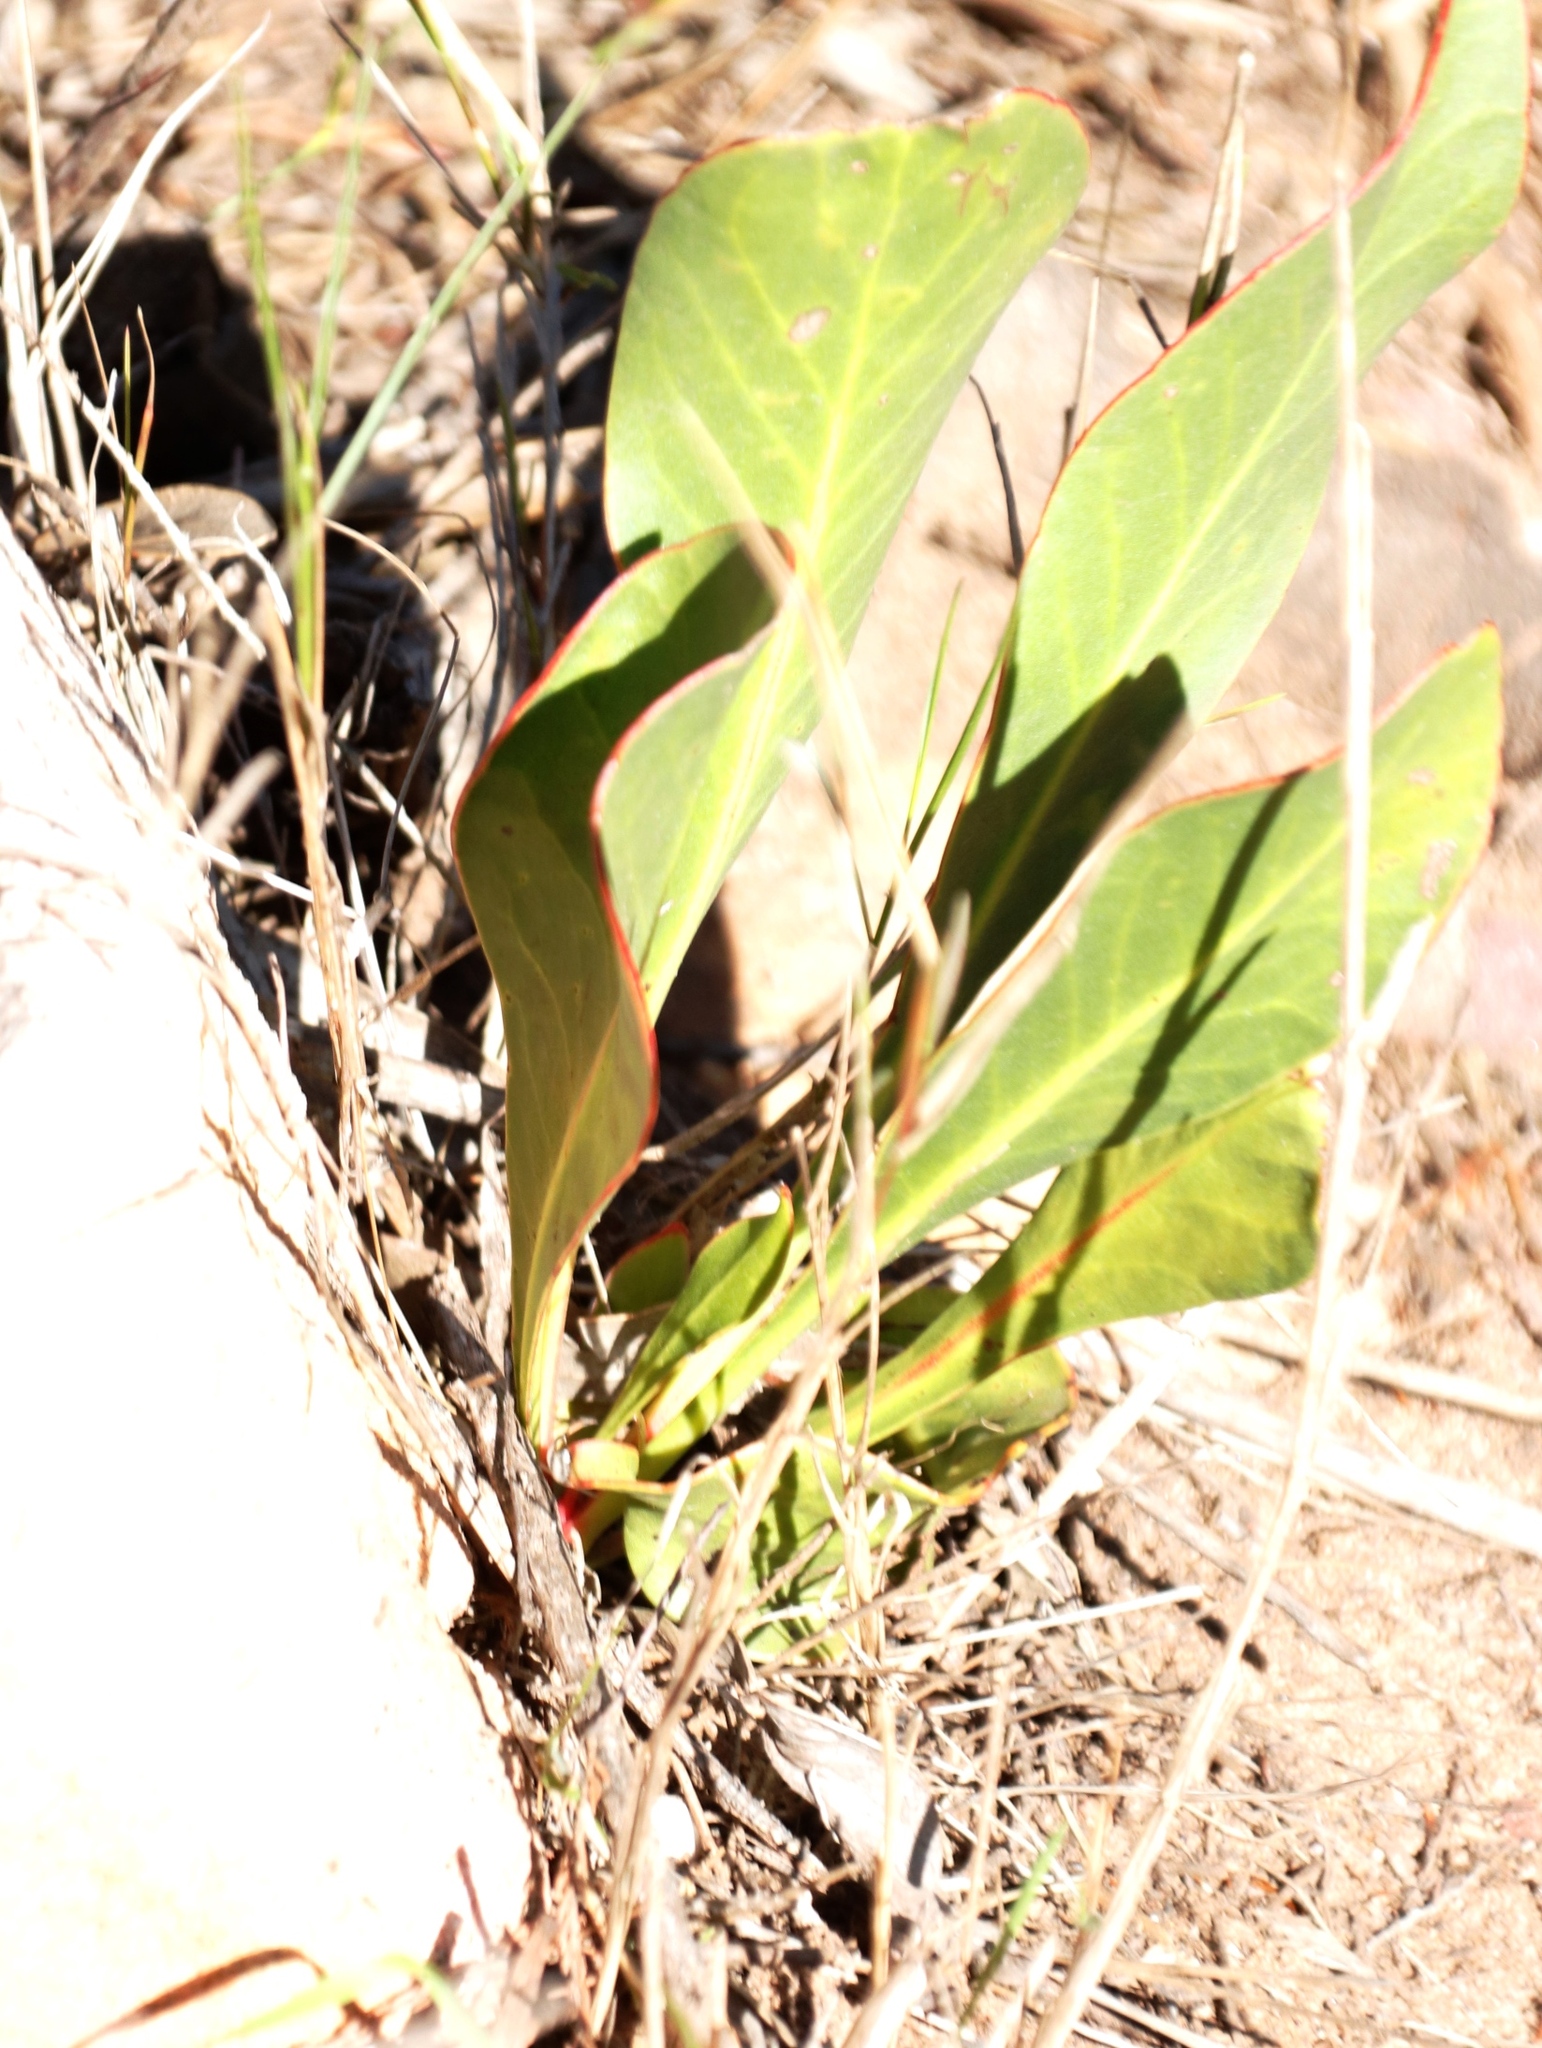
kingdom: Plantae
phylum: Tracheophyta
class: Magnoliopsida
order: Proteales
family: Proteaceae
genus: Protea
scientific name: Protea acaulos
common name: Common ground sugarbush
